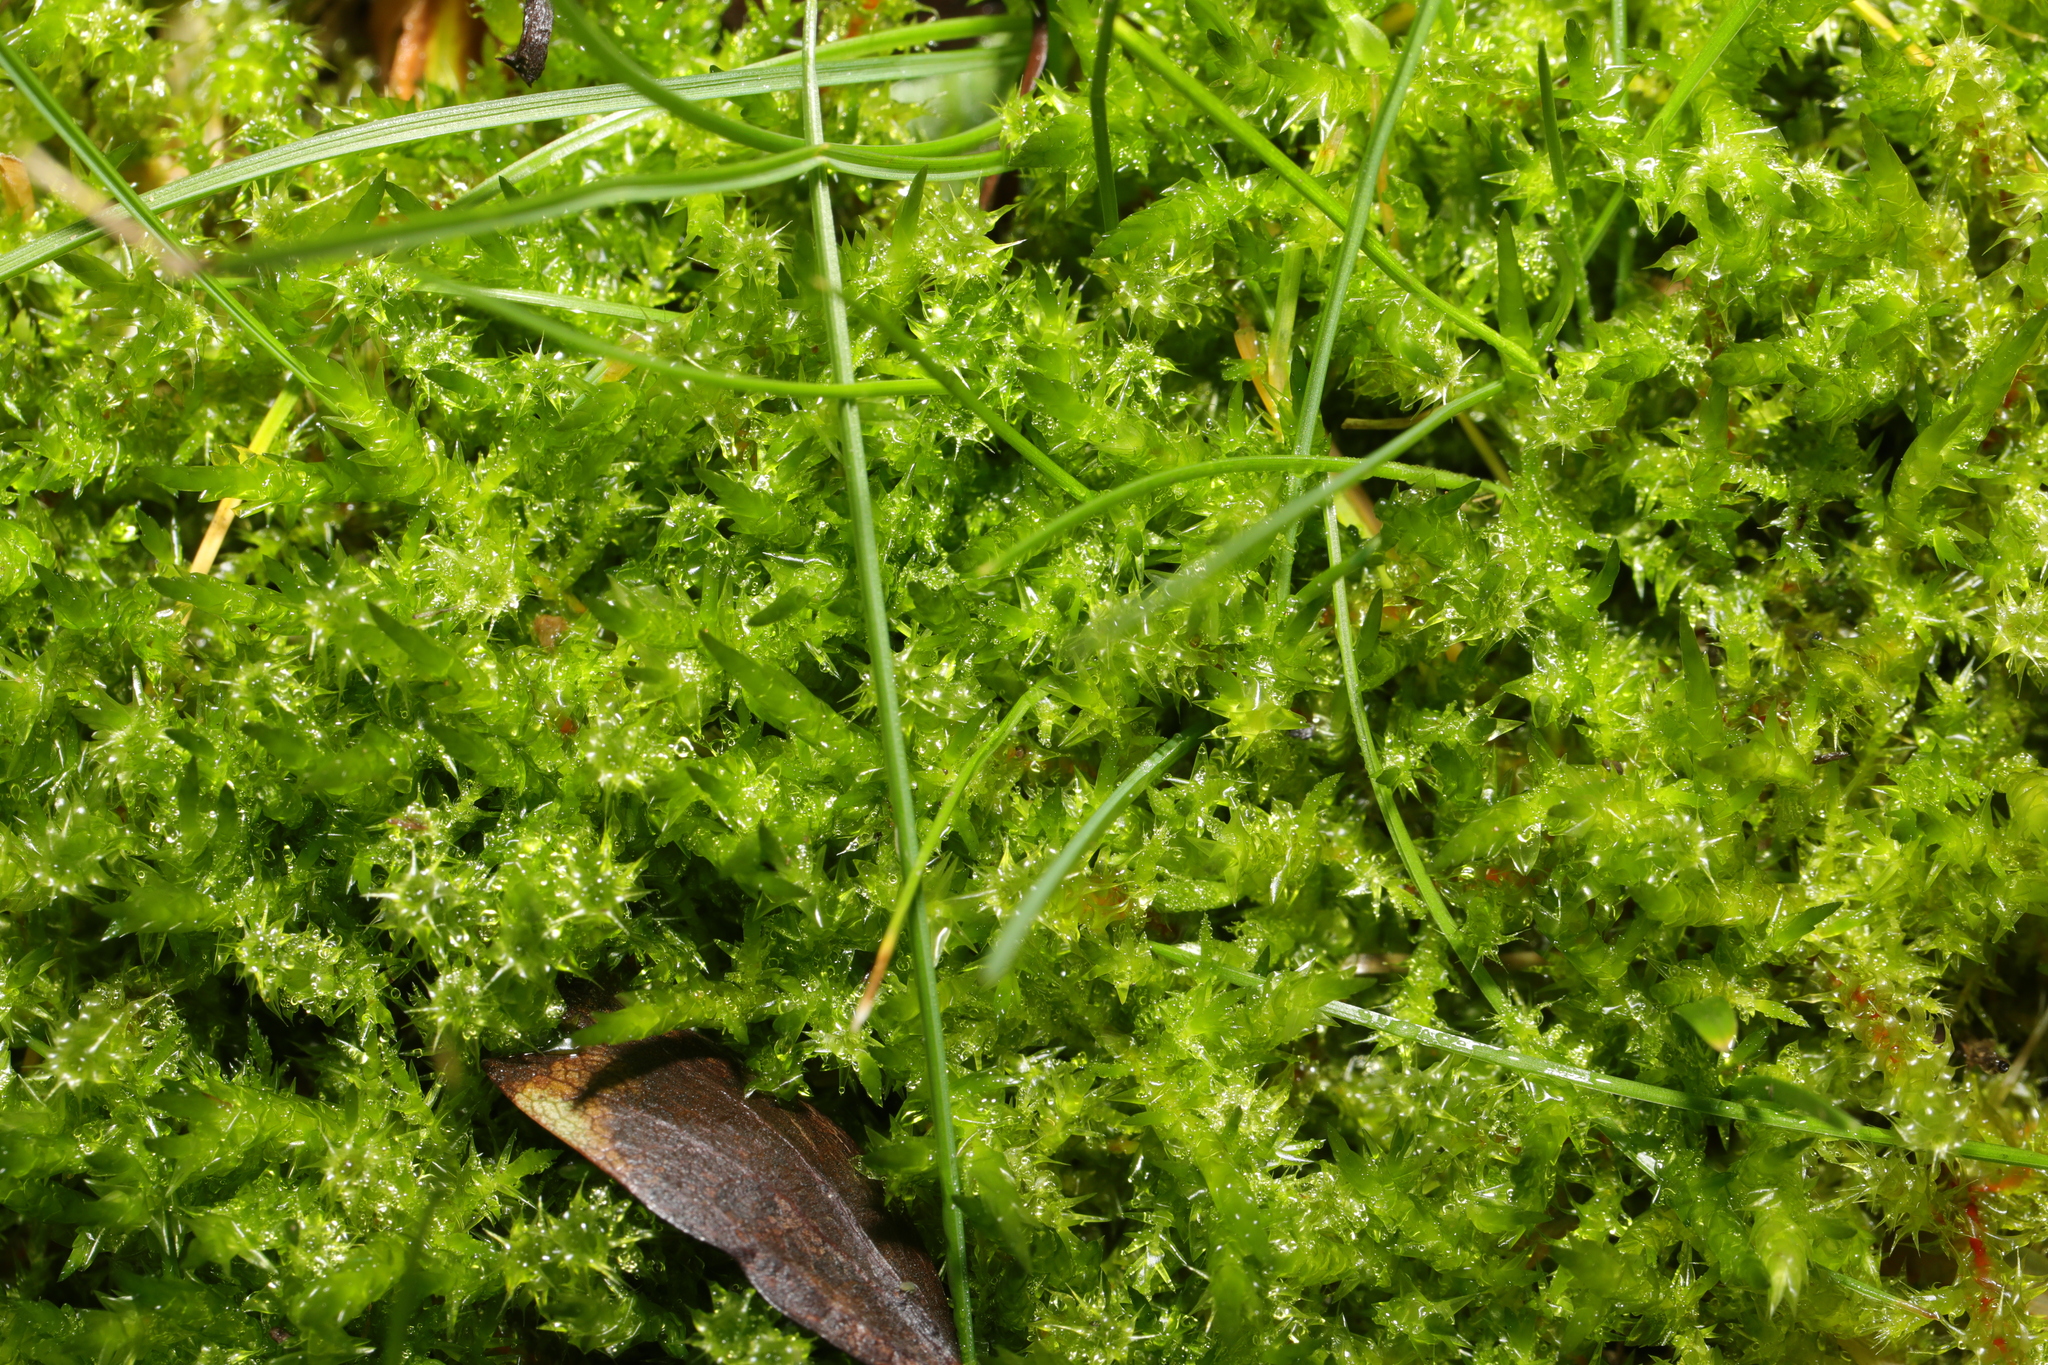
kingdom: Plantae
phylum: Bryophyta
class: Bryopsida
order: Hypnales
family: Hylocomiaceae
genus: Rhytidiadelphus
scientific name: Rhytidiadelphus squarrosus
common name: Springy turf-moss
